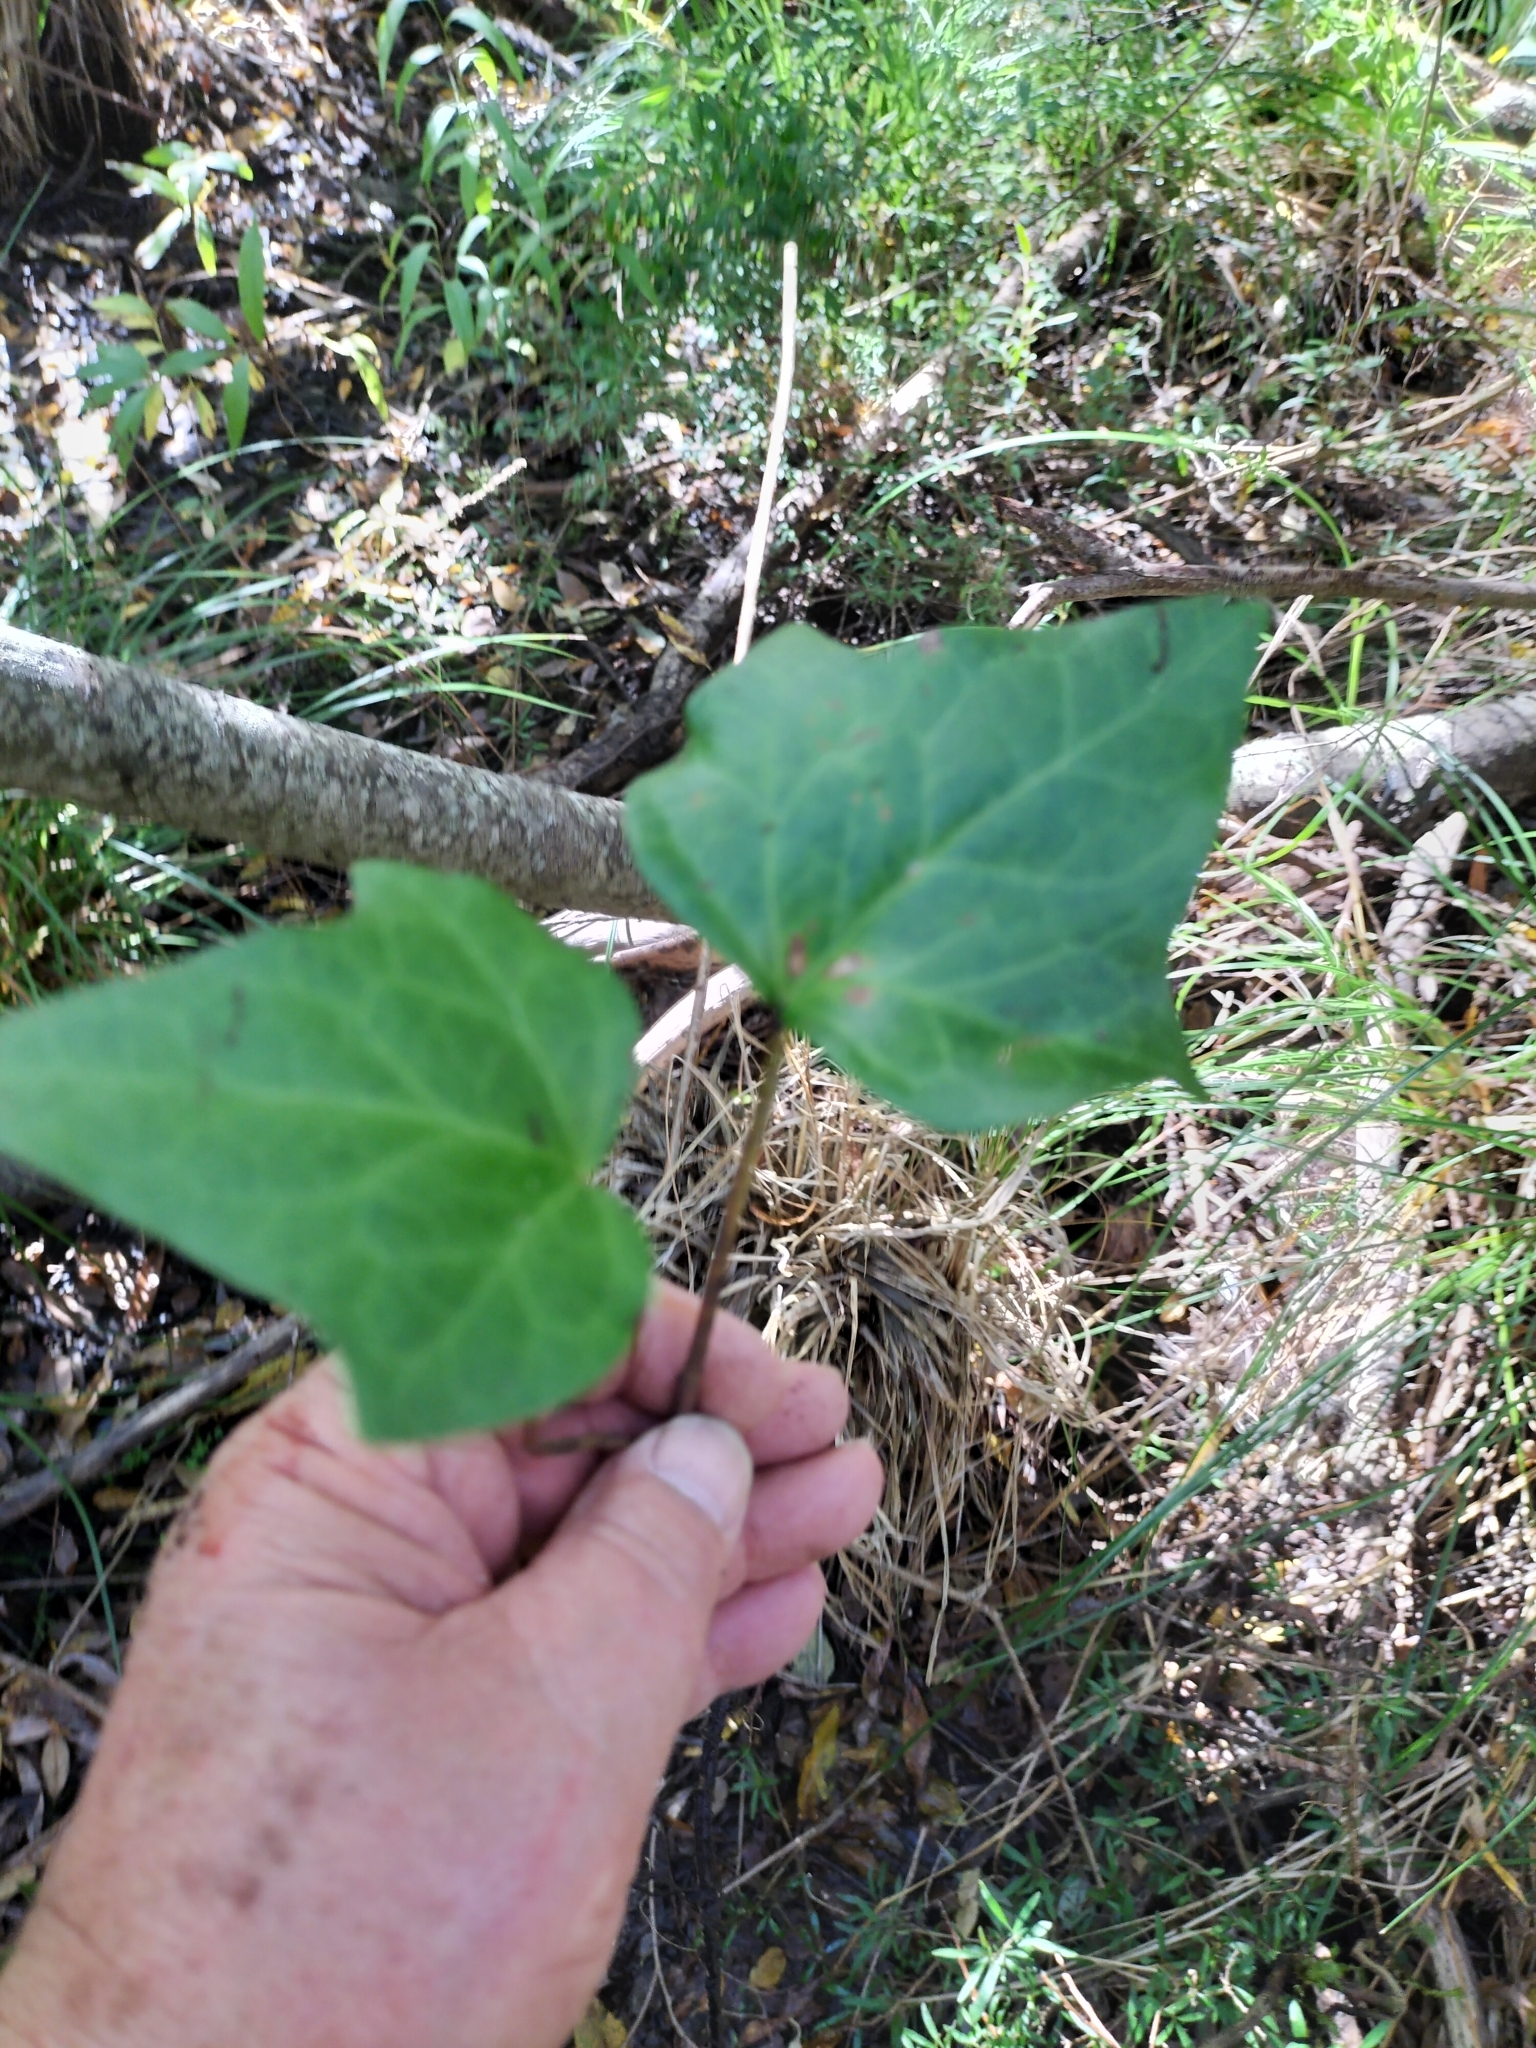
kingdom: Plantae
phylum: Tracheophyta
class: Magnoliopsida
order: Apiales
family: Araliaceae
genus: Hedera
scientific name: Hedera helix
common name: Ivy
